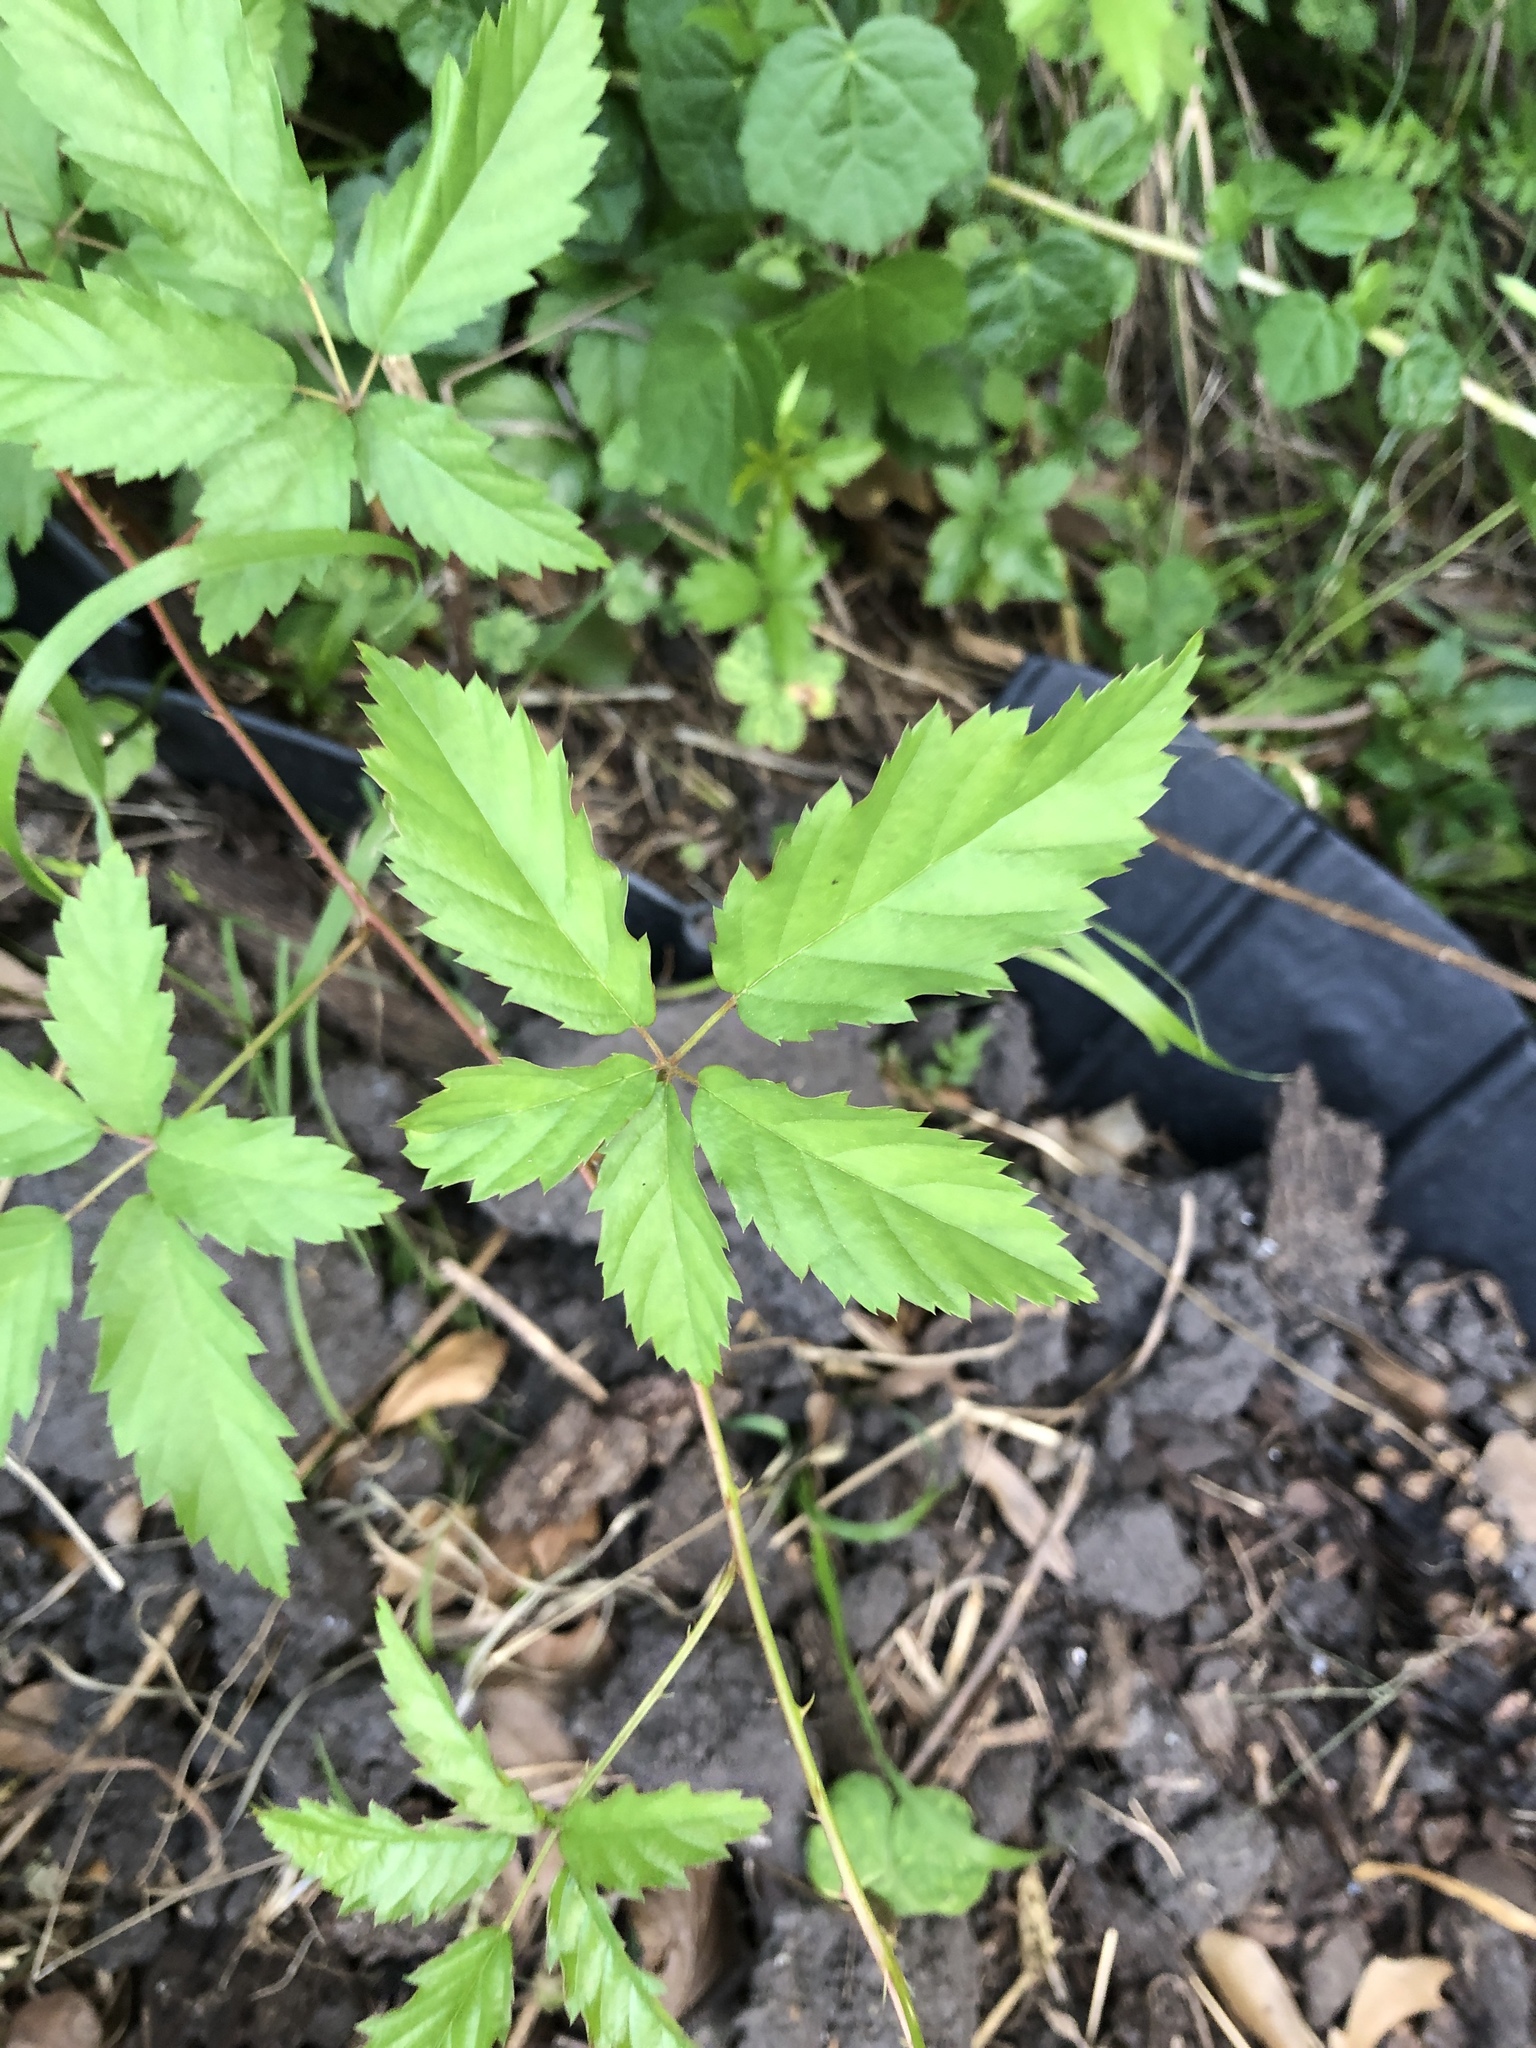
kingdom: Plantae
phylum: Tracheophyta
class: Magnoliopsida
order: Rosales
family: Rosaceae
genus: Rubus
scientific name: Rubus trivialis
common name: Southern dewberry
